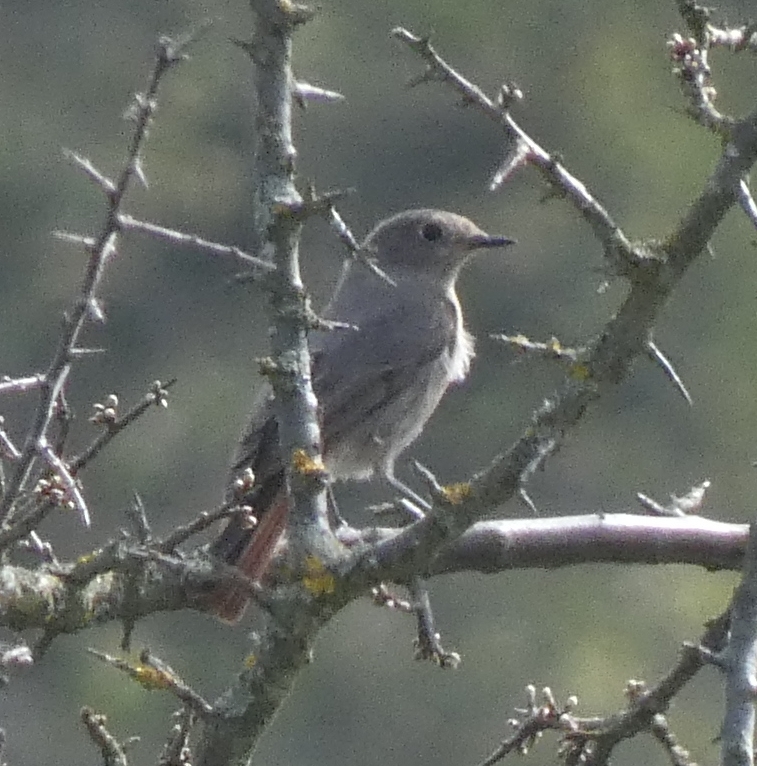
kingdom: Animalia
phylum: Chordata
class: Aves
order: Passeriformes
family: Muscicapidae
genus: Phoenicurus
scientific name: Phoenicurus ochruros
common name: Black redstart
